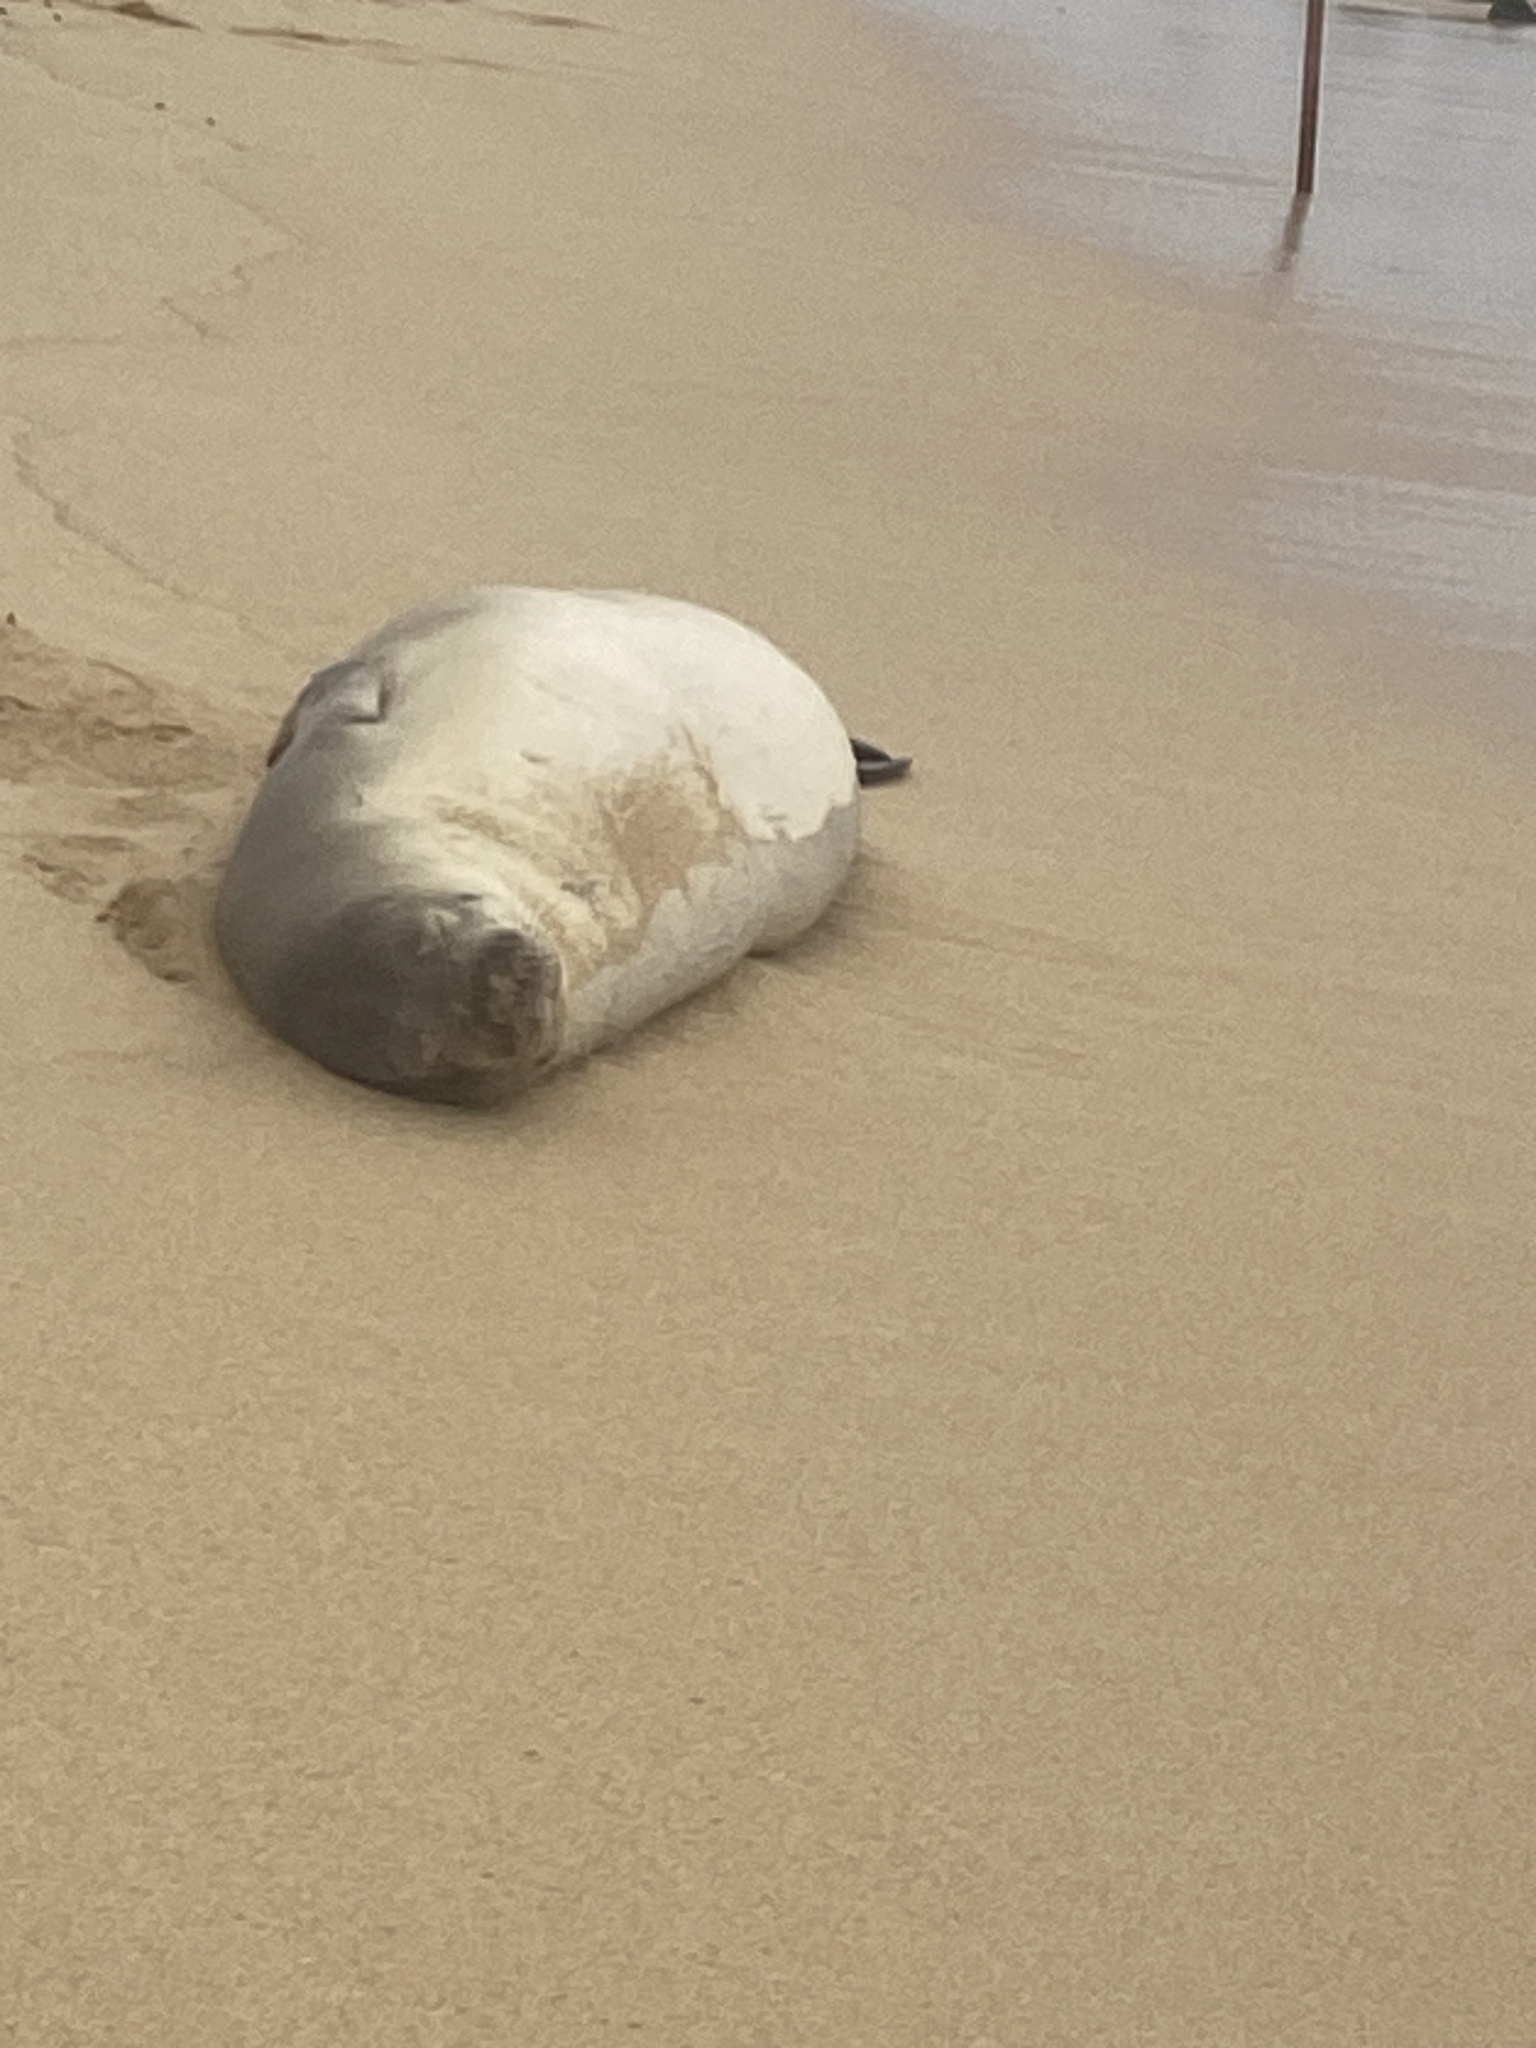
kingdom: Animalia
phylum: Chordata
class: Mammalia
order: Carnivora
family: Phocidae
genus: Neomonachus
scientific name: Neomonachus schauinslandi
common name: Hawaiian monk seal
